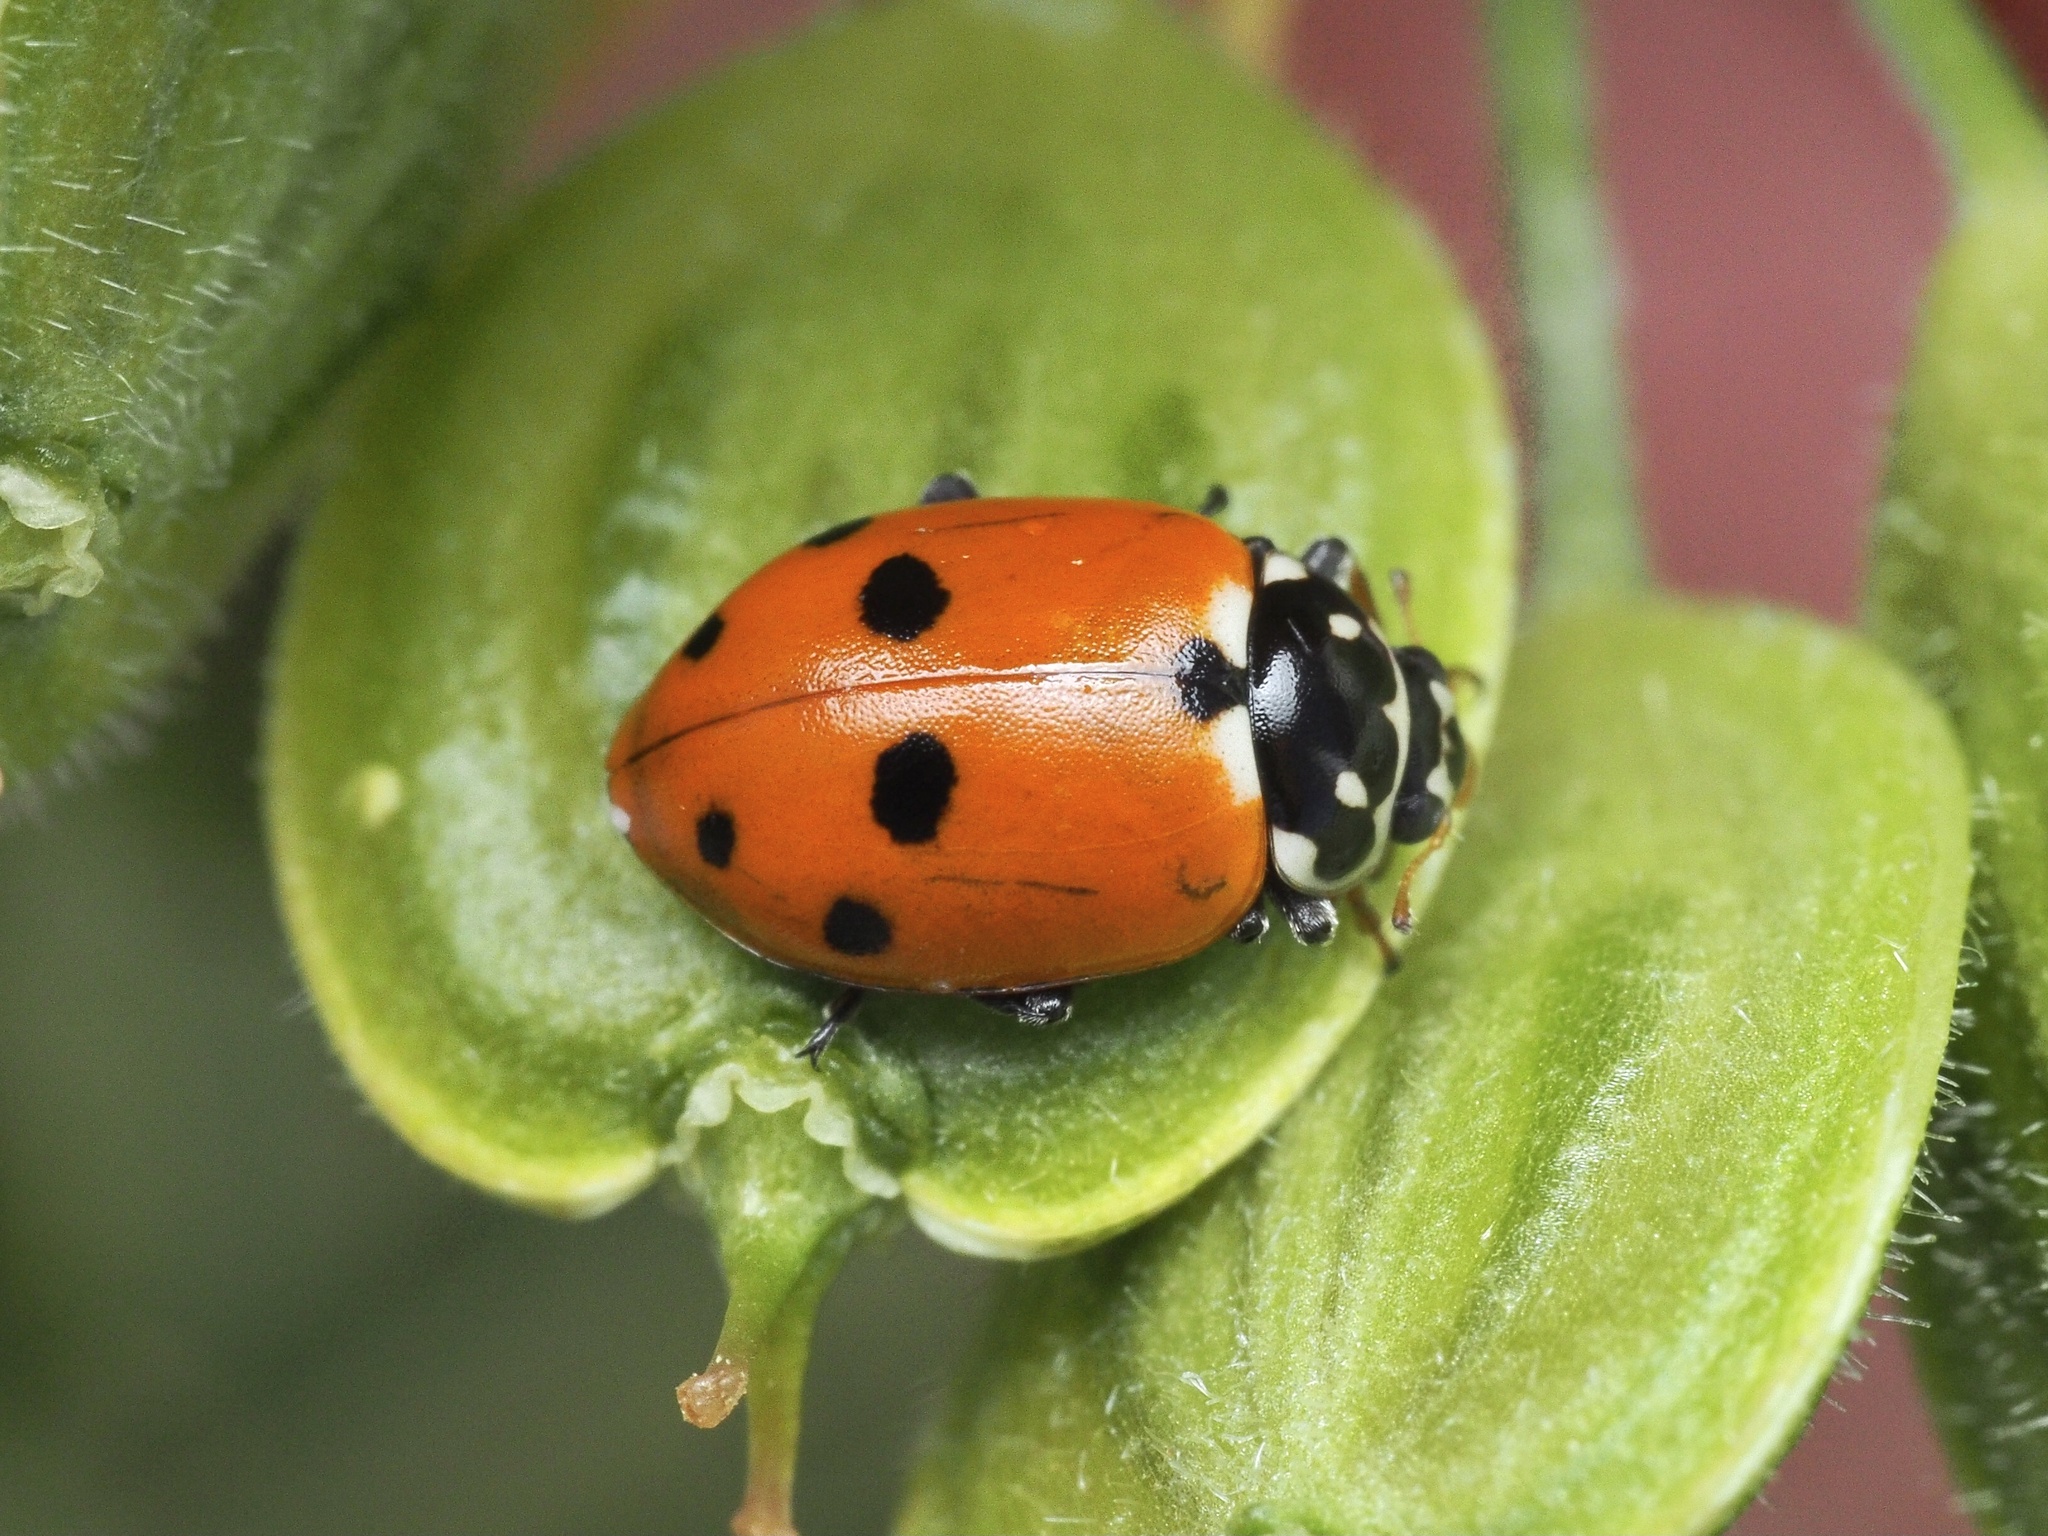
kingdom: Animalia
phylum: Arthropoda
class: Insecta
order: Coleoptera
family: Coccinellidae
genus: Hippodamia
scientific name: Hippodamia variegata
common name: Ladybird beetle
